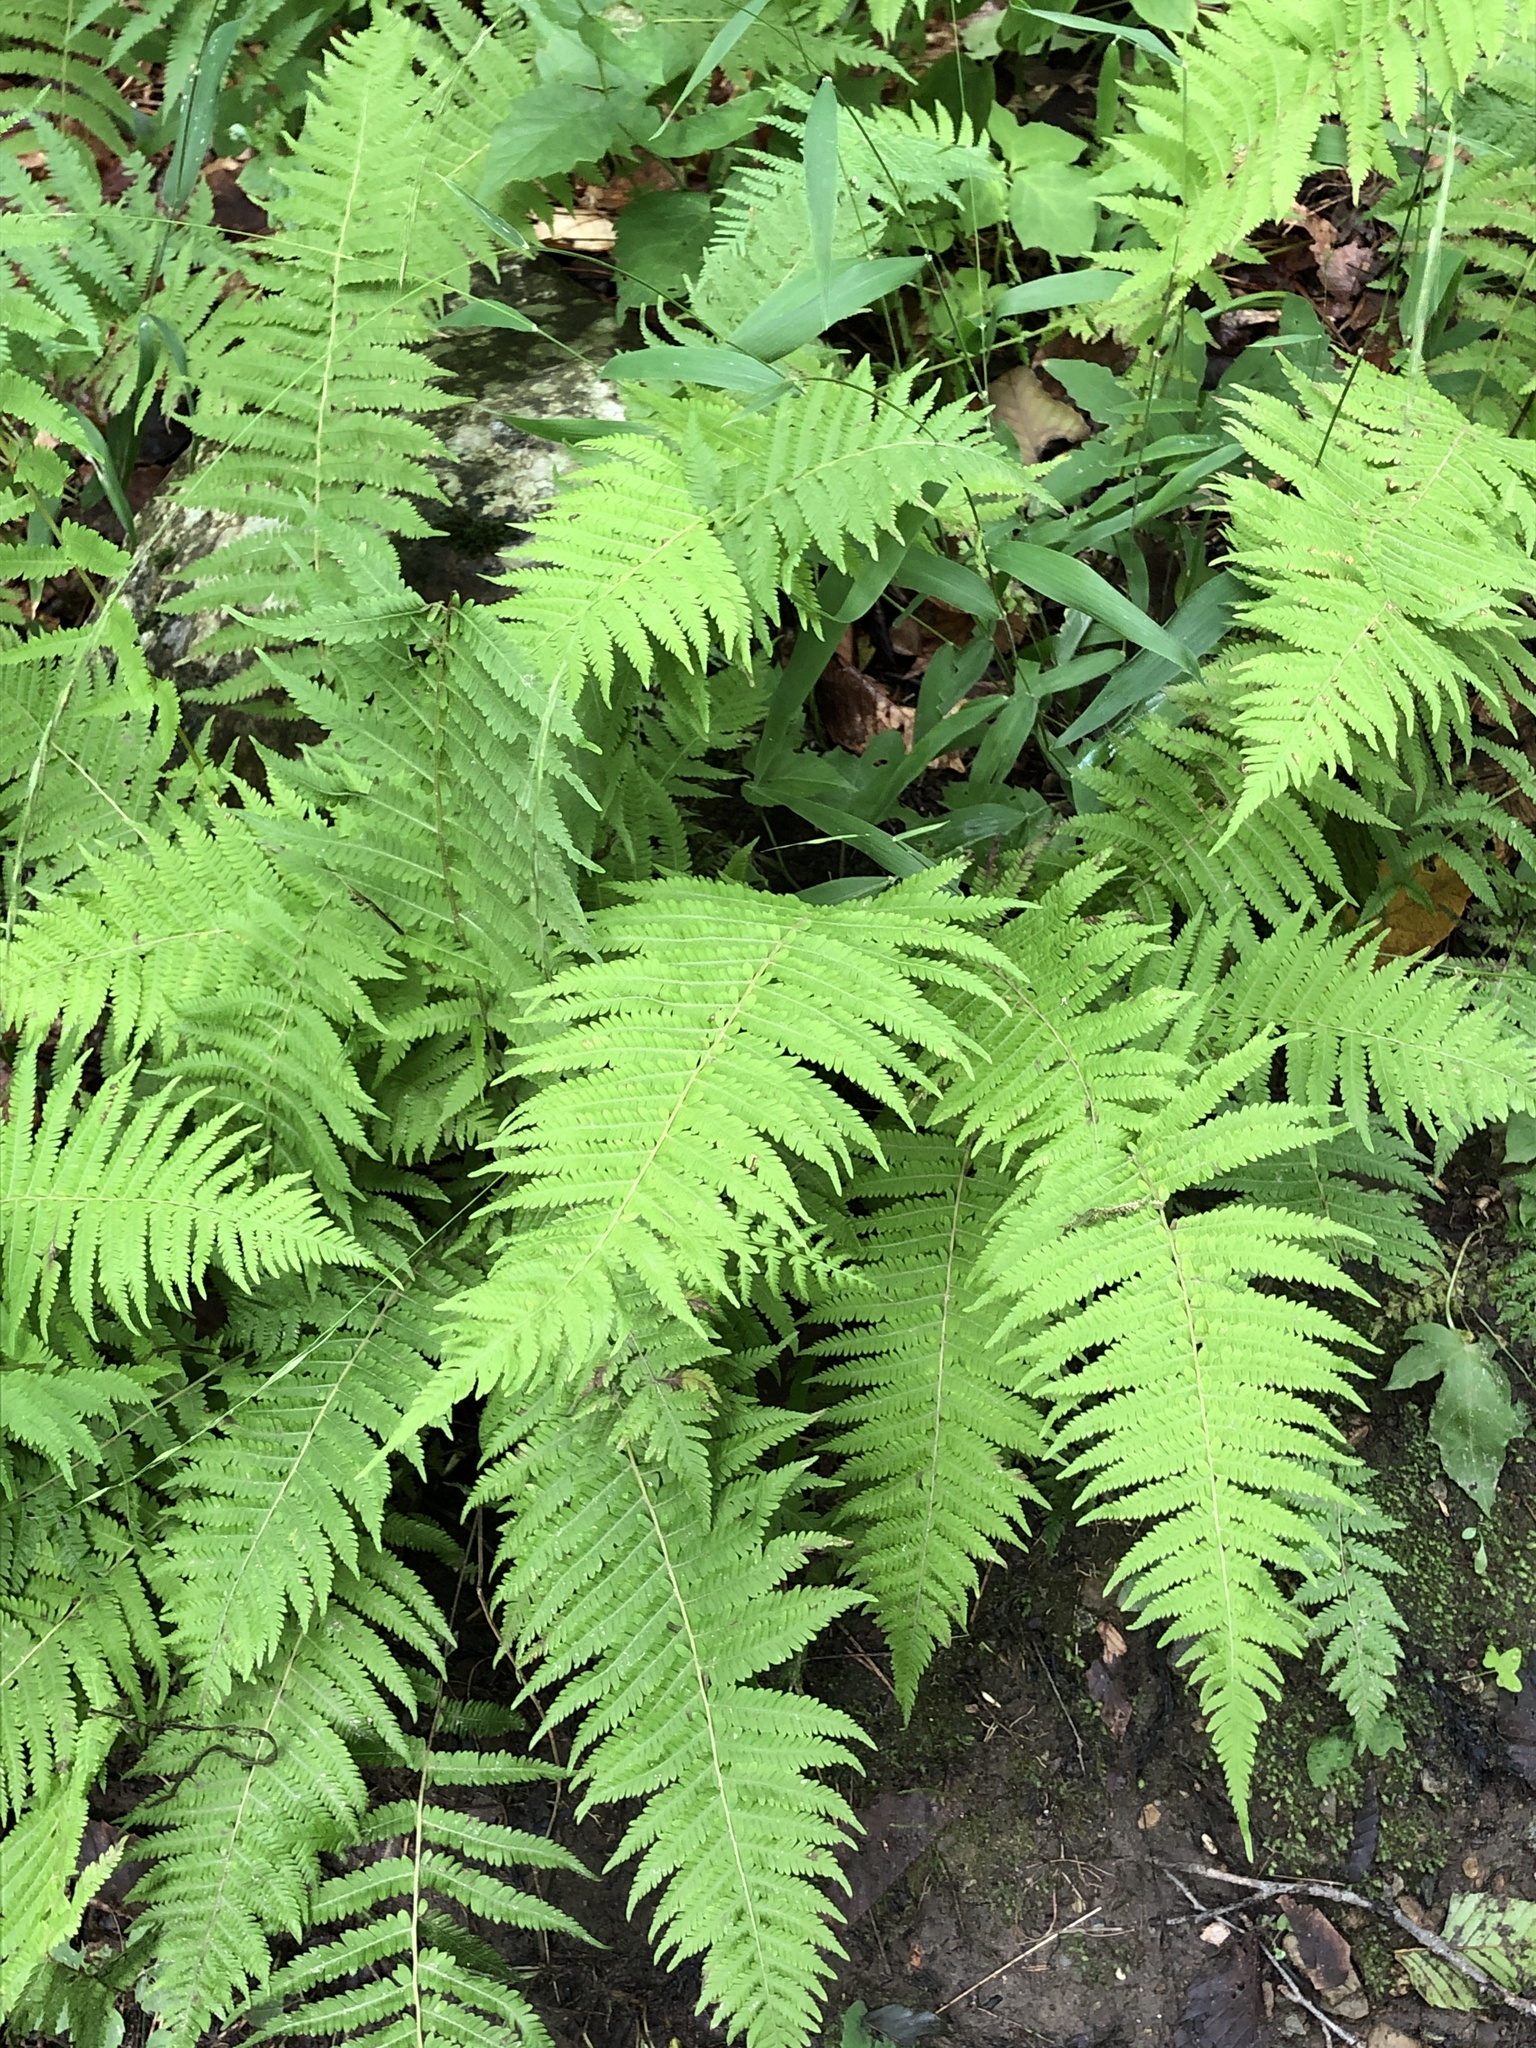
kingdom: Plantae
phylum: Tracheophyta
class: Polypodiopsida
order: Polypodiales
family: Thelypteridaceae
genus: Amauropelta
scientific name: Amauropelta noveboracensis
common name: New york fern
